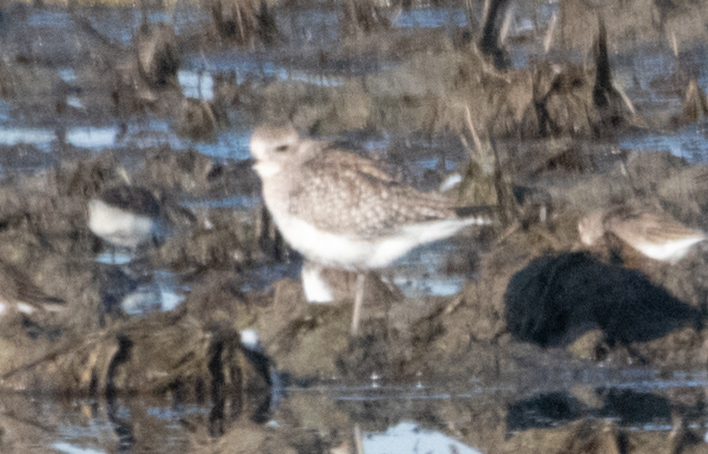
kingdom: Animalia
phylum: Chordata
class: Aves
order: Charadriiformes
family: Charadriidae
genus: Pluvialis
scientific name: Pluvialis squatarola
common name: Grey plover
